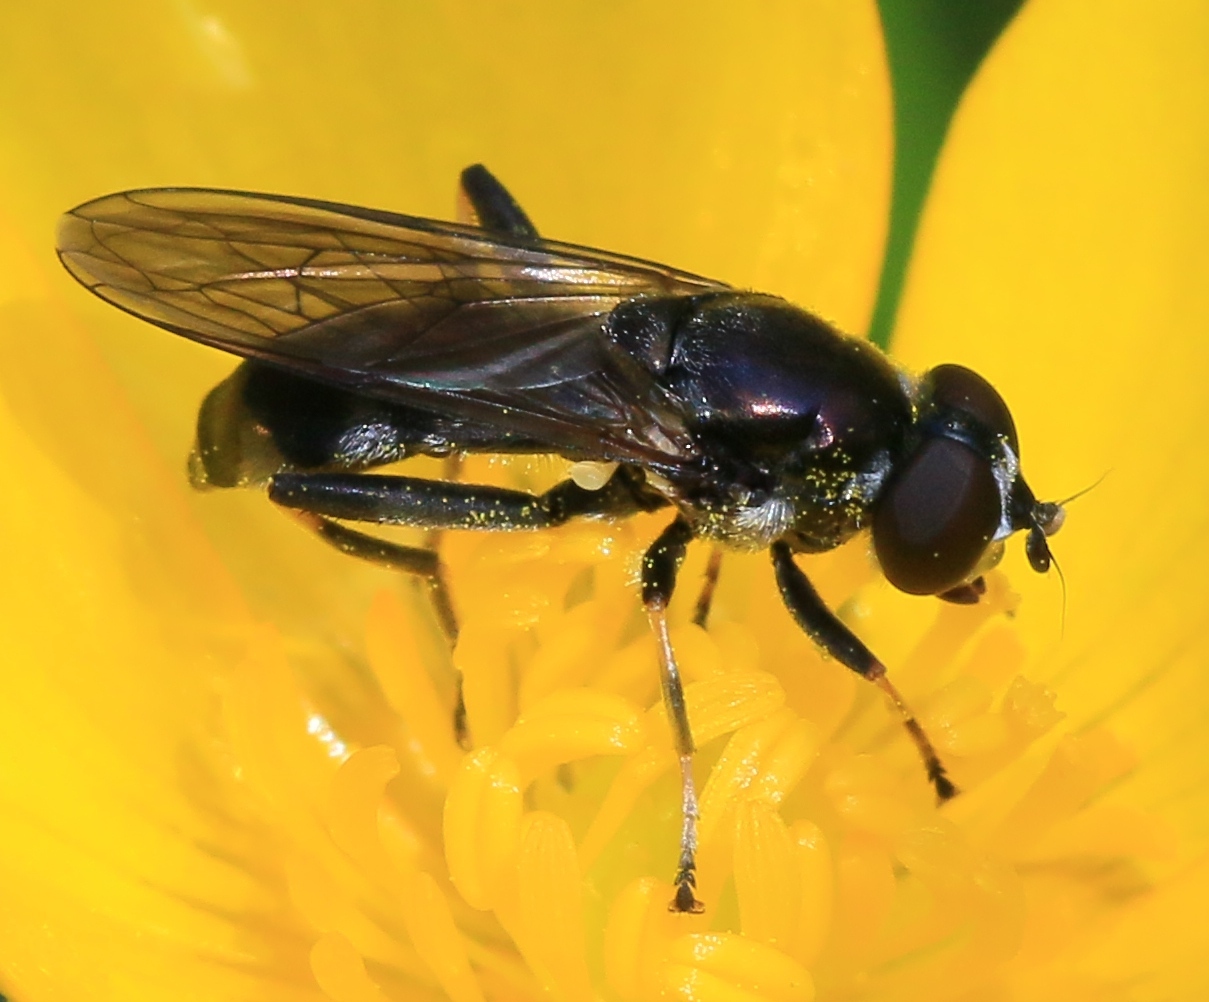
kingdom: Animalia
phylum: Arthropoda
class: Insecta
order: Diptera
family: Syrphidae
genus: Xylota
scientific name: Xylota jakutorum
